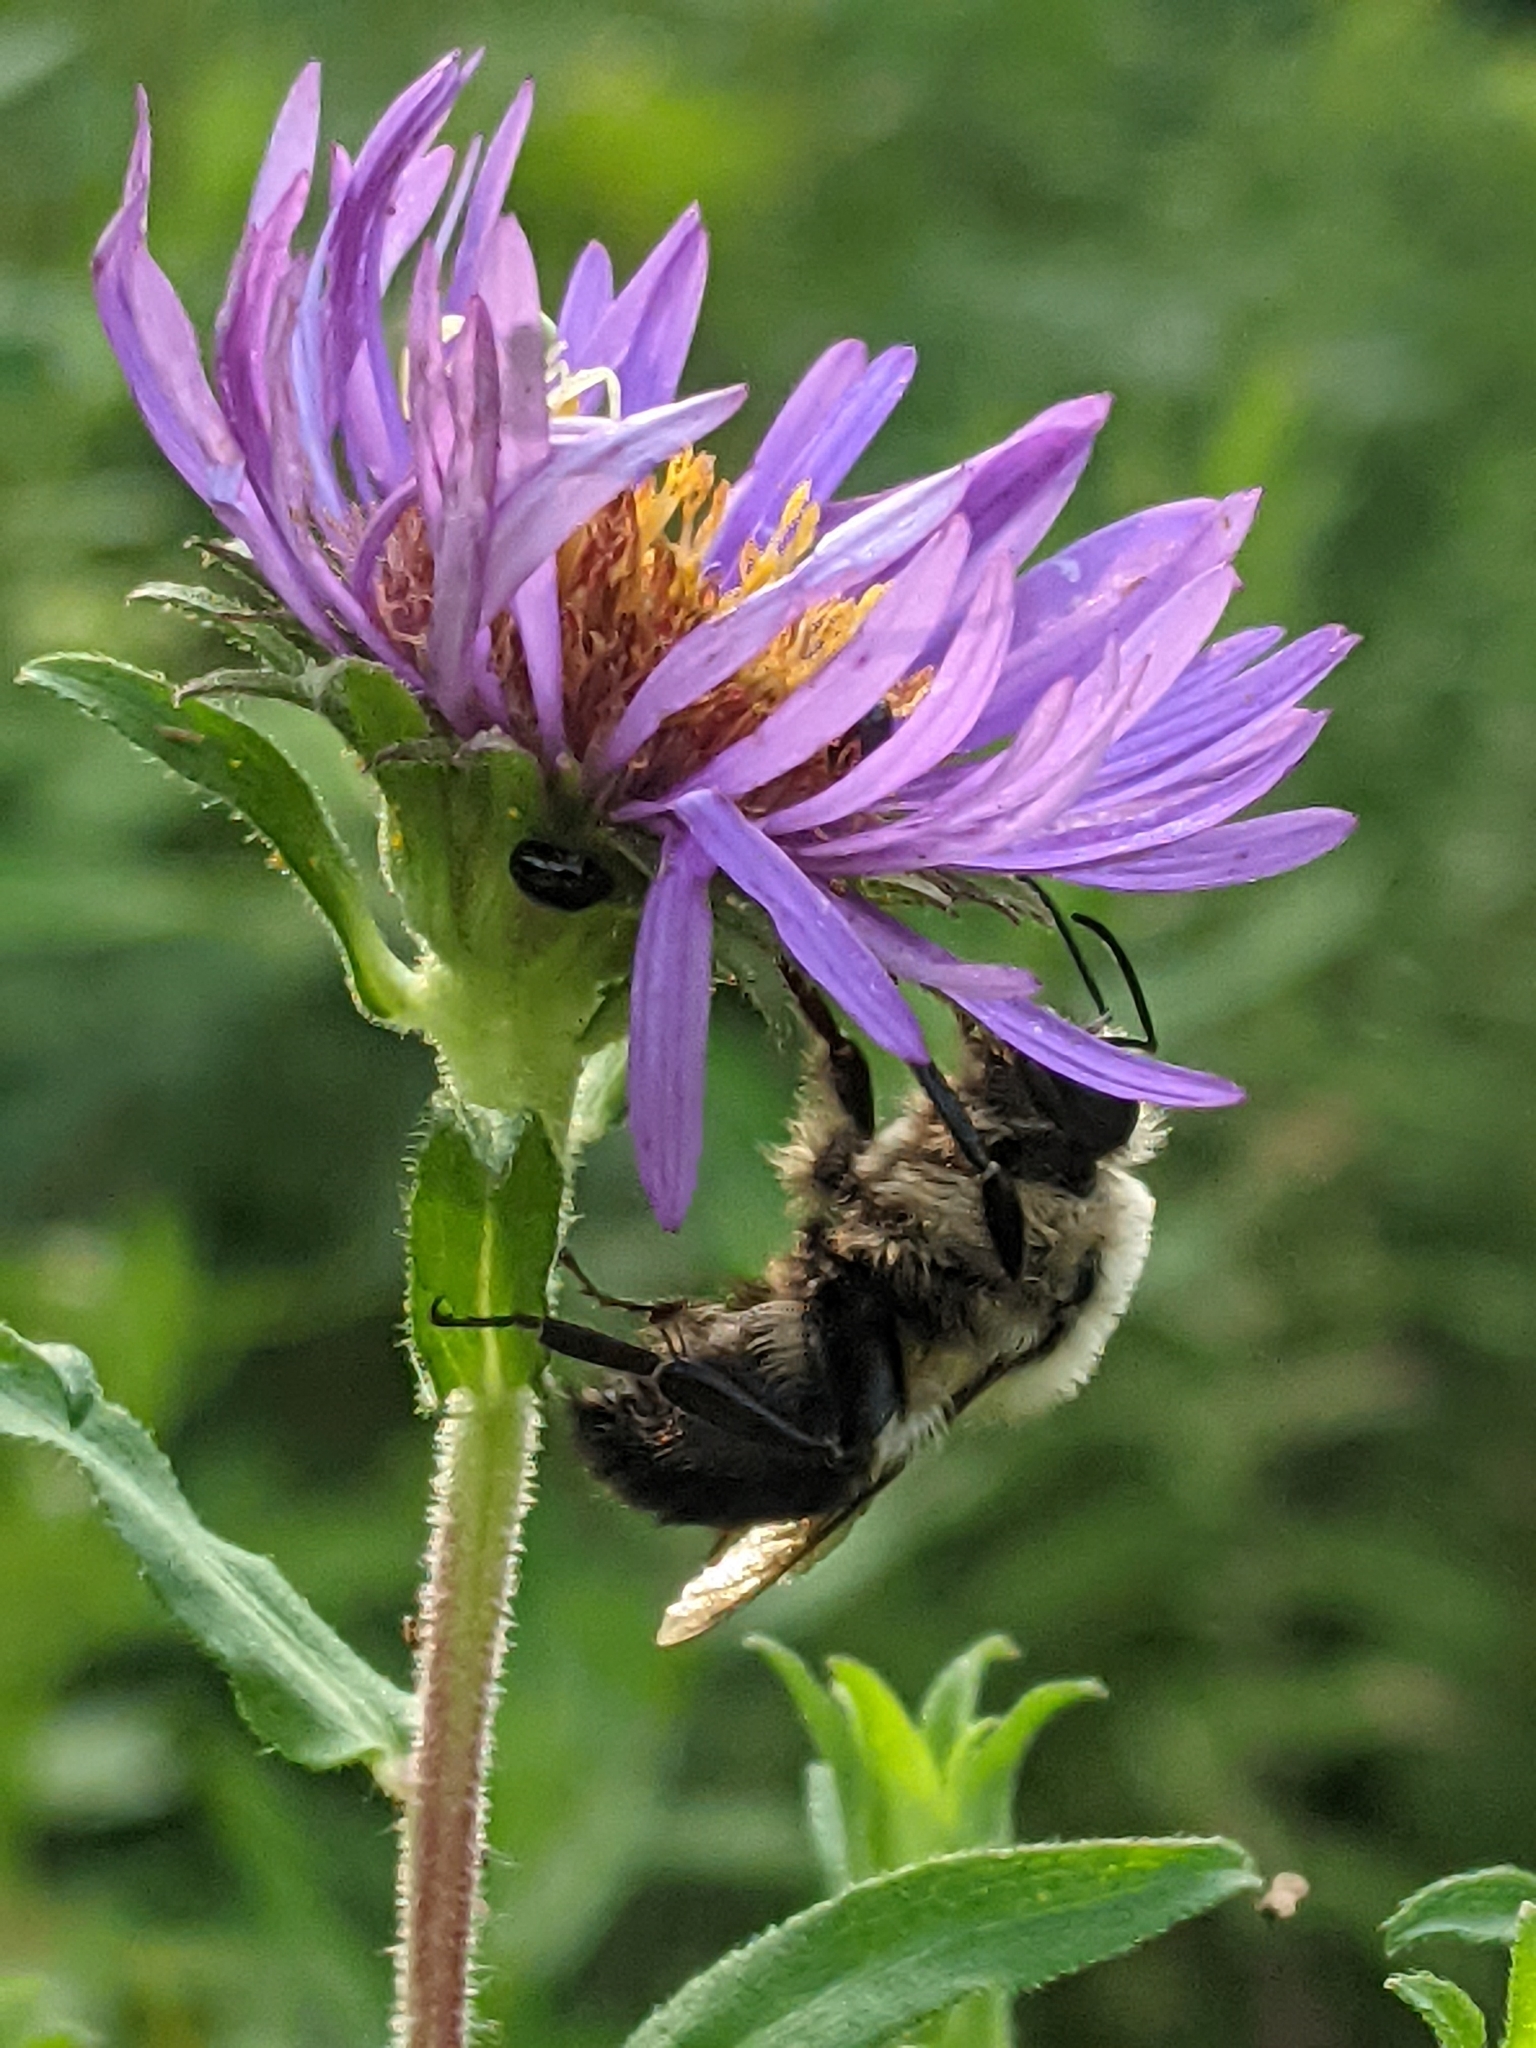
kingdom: Animalia
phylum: Arthropoda
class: Insecta
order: Hymenoptera
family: Apidae
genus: Bombus
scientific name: Bombus impatiens
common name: Common eastern bumble bee
